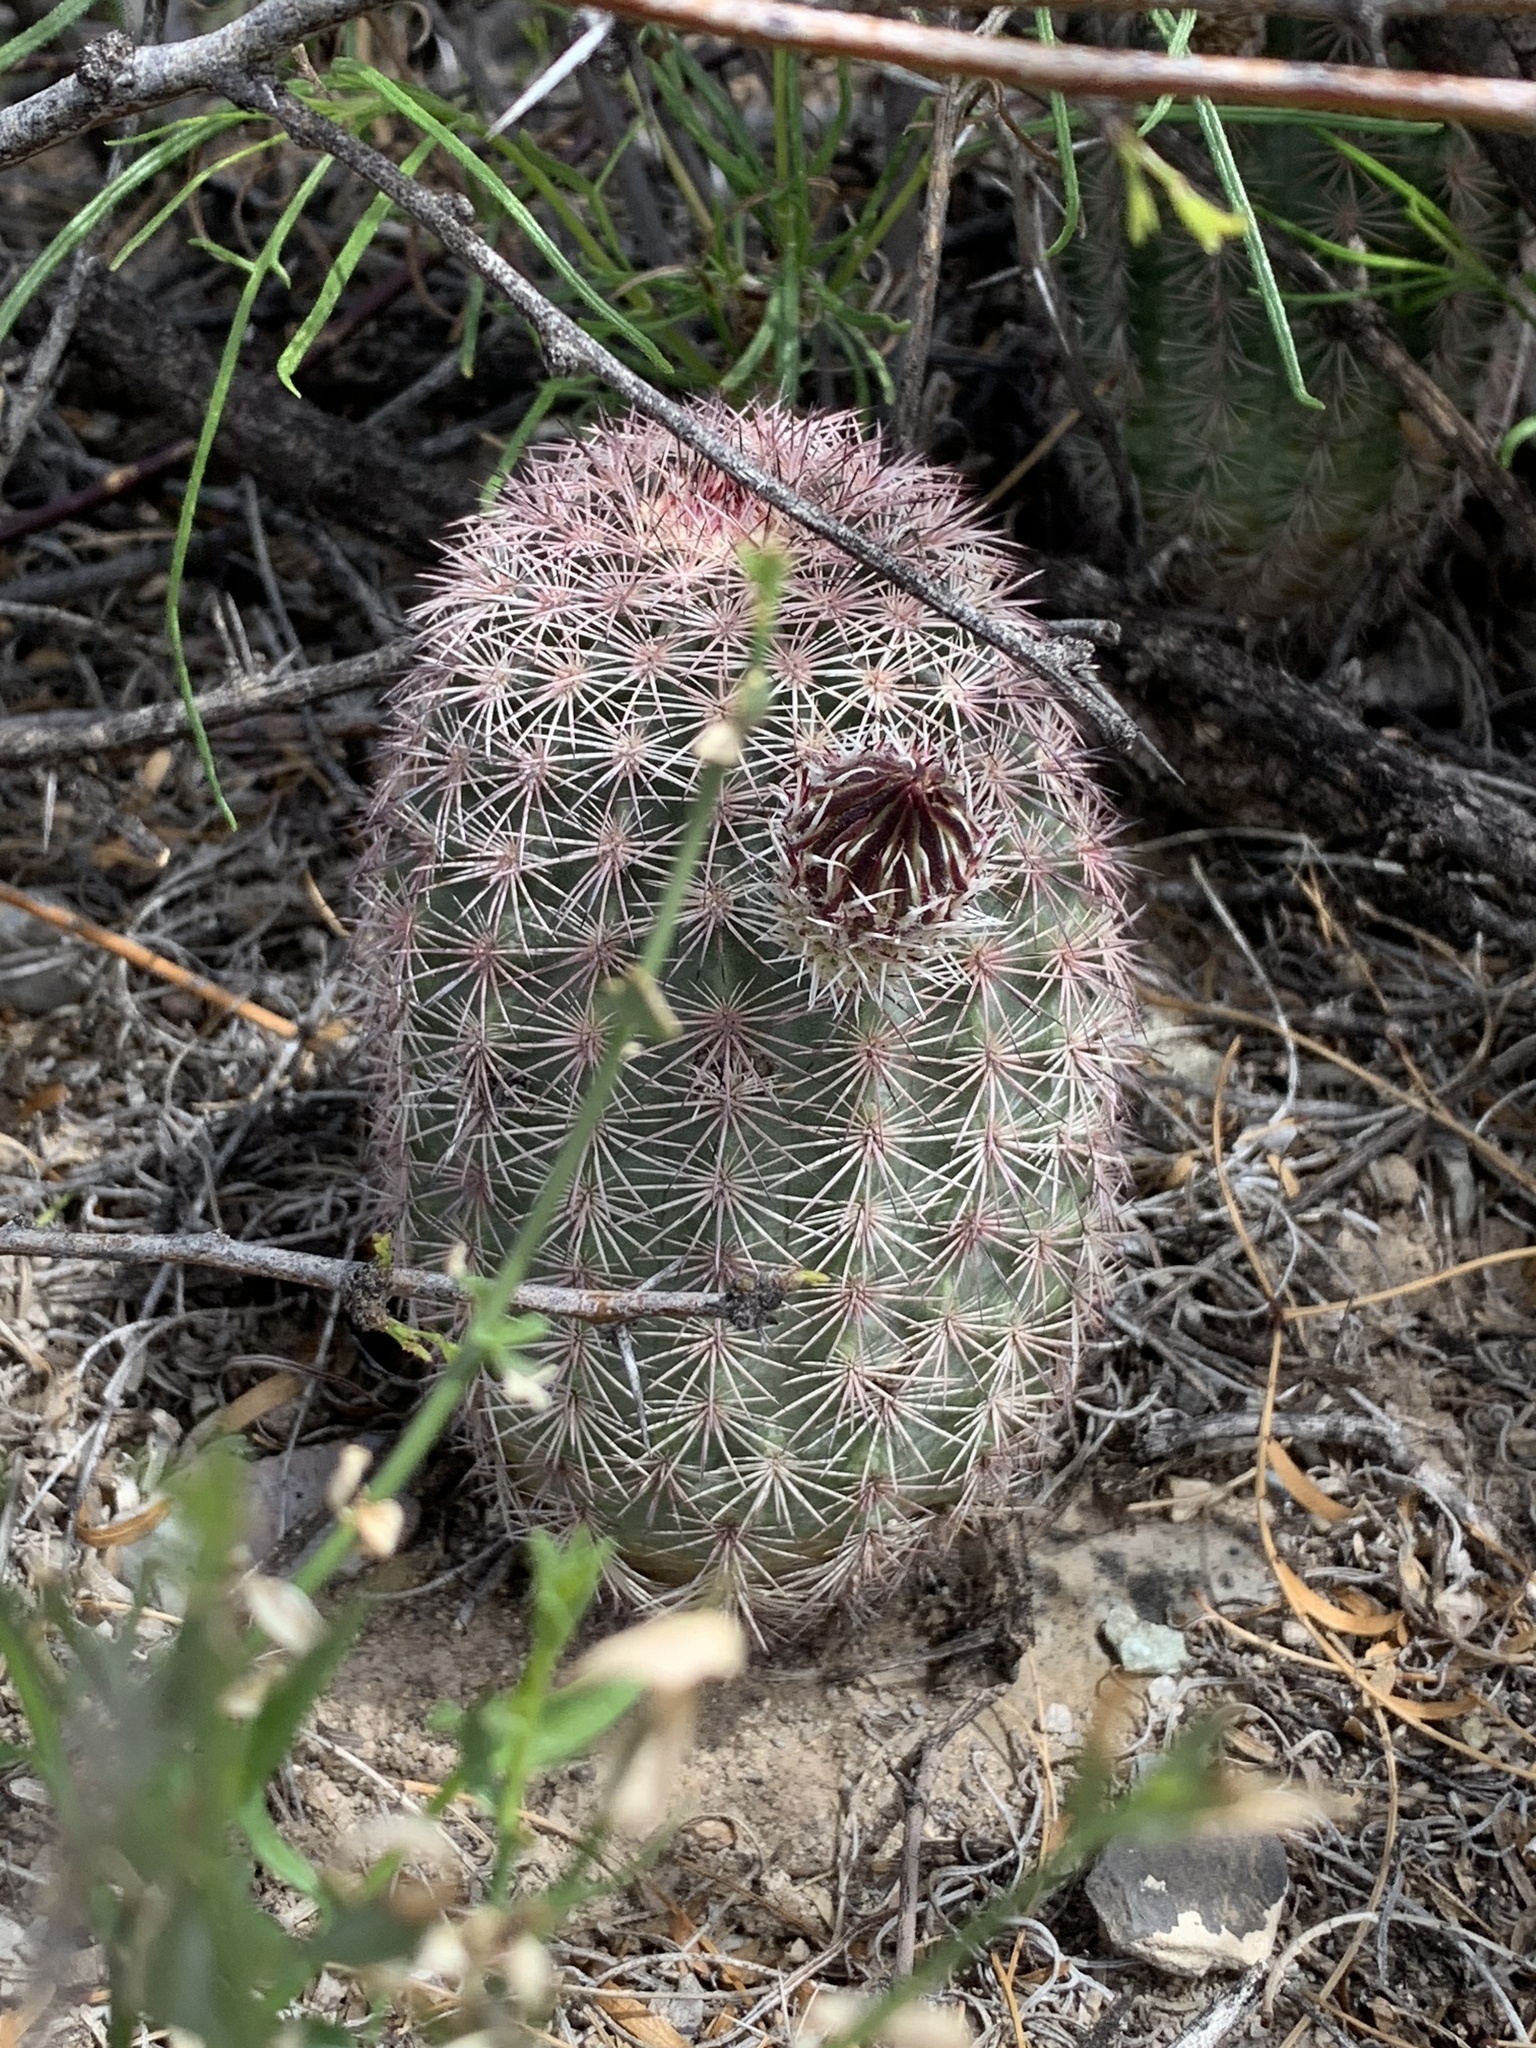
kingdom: Plantae
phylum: Tracheophyta
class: Magnoliopsida
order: Caryophyllales
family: Cactaceae
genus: Echinocereus
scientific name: Echinocereus dasyacanthus
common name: Spiny hedgehog cactus
